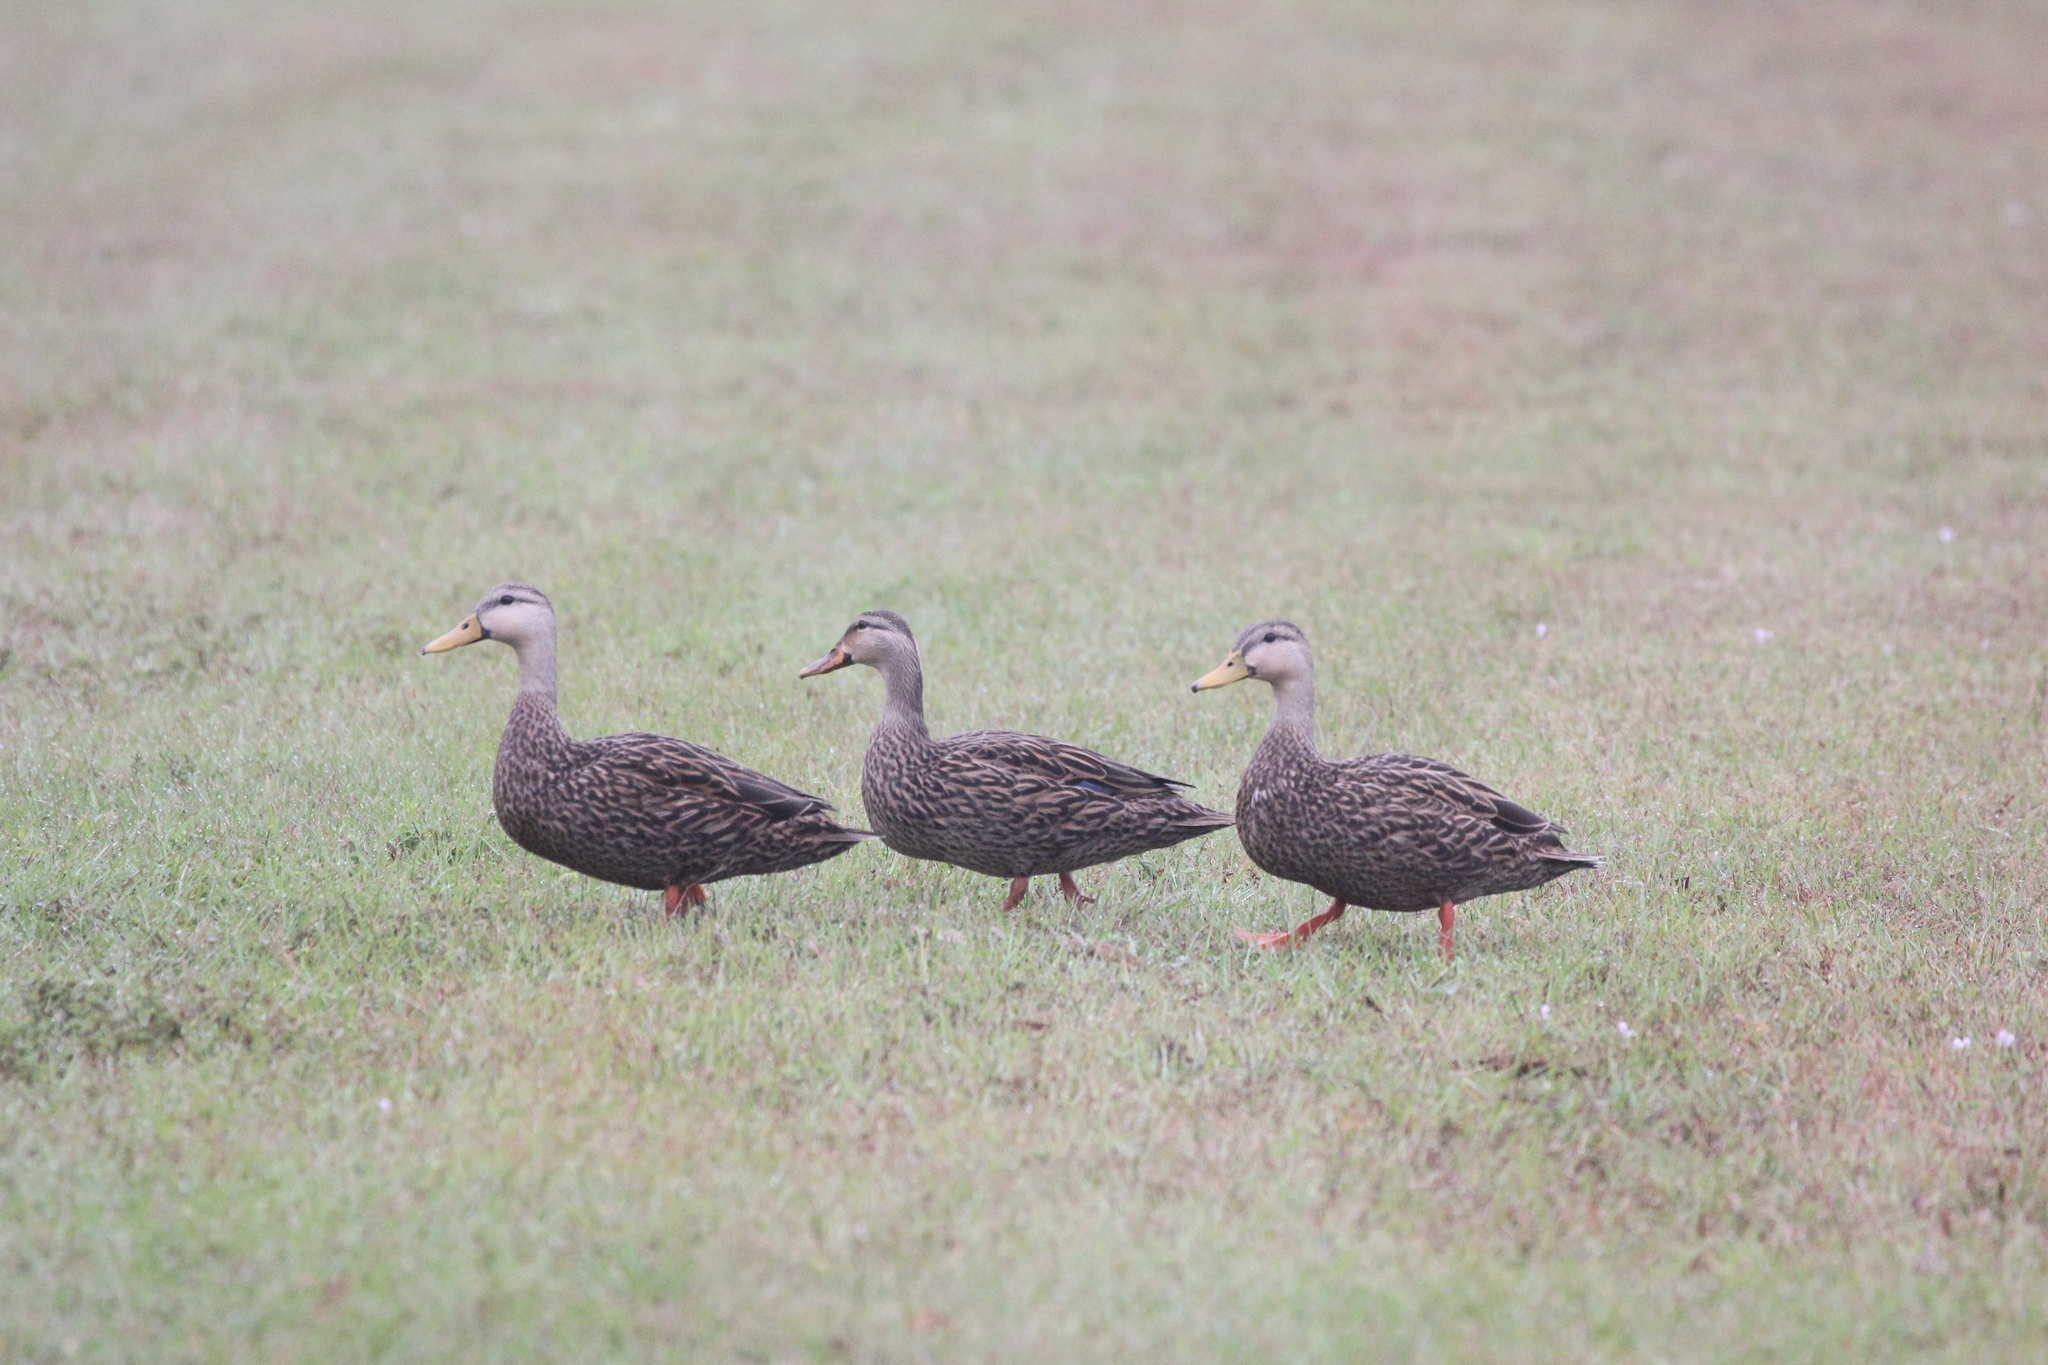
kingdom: Animalia
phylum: Chordata
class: Aves
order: Anseriformes
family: Anatidae
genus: Anas
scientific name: Anas fulvigula
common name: Mottled duck
